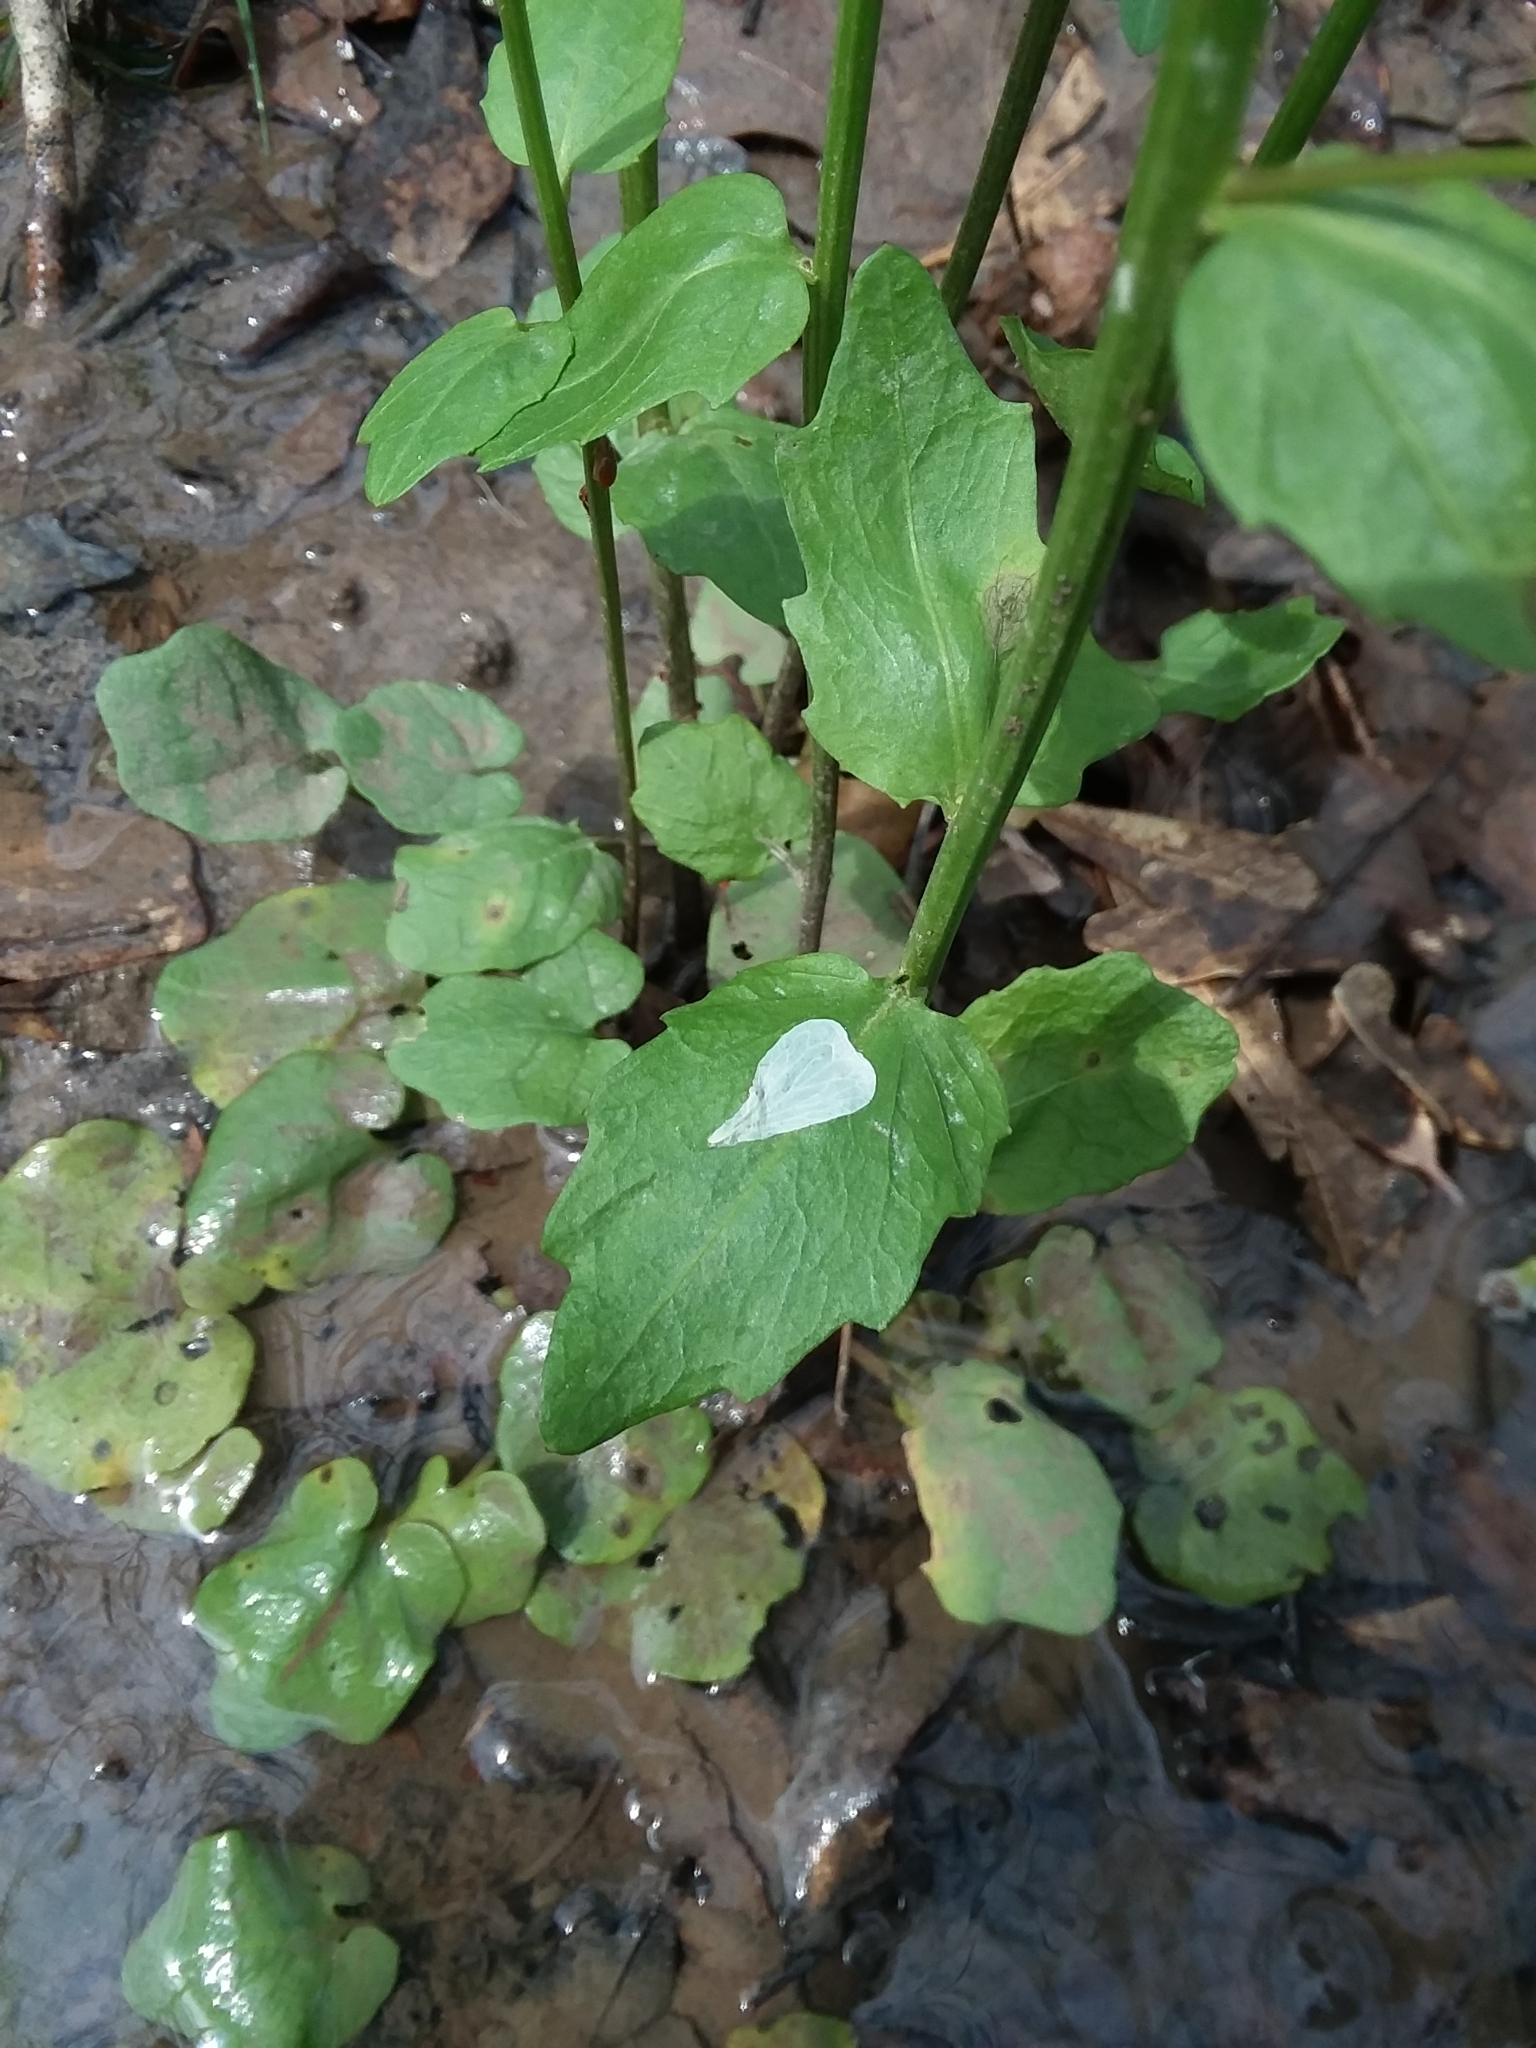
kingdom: Plantae
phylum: Tracheophyta
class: Magnoliopsida
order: Brassicales
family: Brassicaceae
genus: Cardamine
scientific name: Cardamine bulbosa
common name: Spring cress
